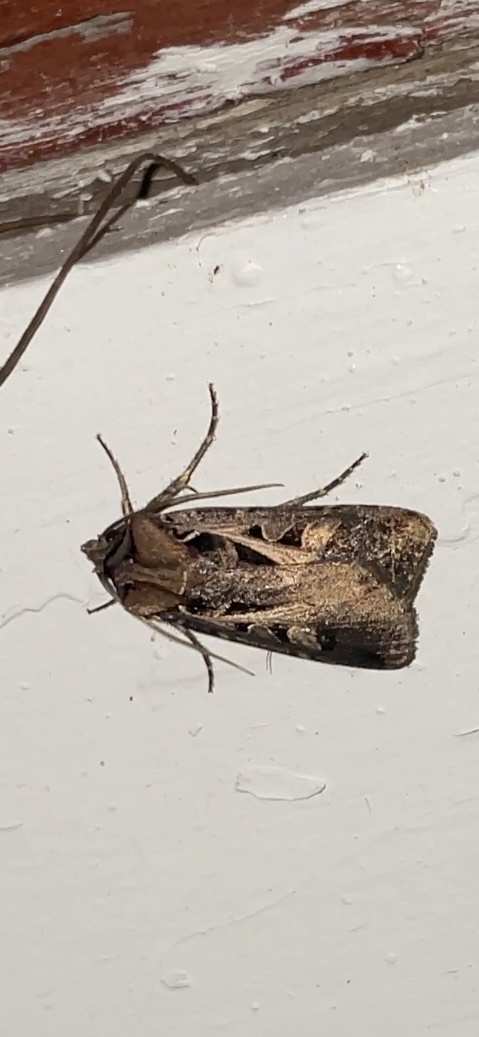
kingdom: Animalia
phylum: Arthropoda
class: Insecta
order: Lepidoptera
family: Noctuidae
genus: Feltia
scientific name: Feltia herilis
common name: Master's dart
